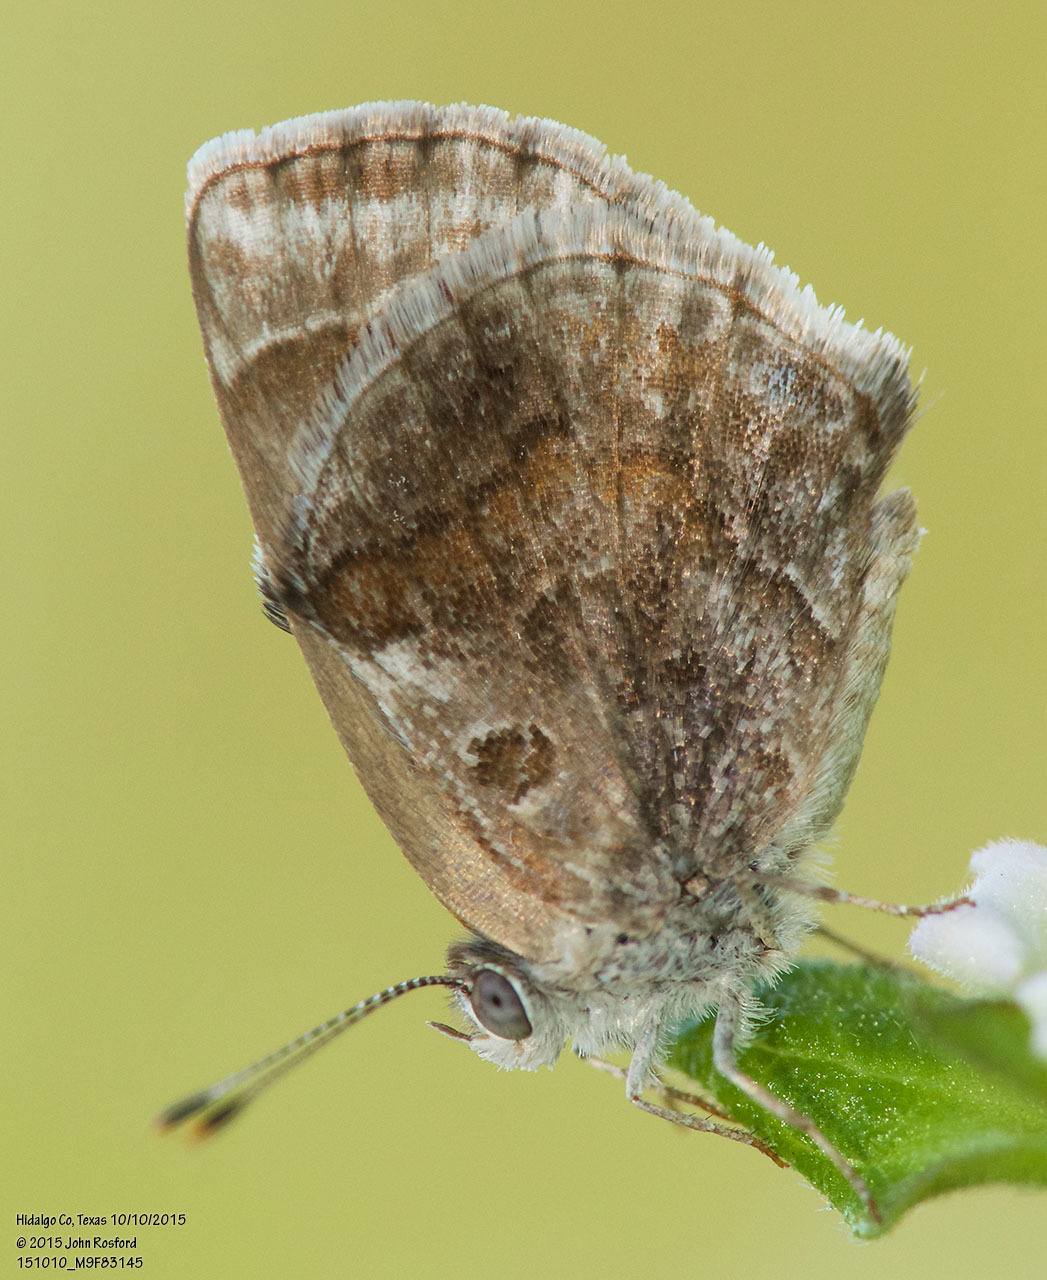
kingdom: Animalia
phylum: Arthropoda
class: Insecta
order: Lepidoptera
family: Lycaenidae
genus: Strymon
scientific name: Strymon bazochii
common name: Lantana scrub-hairstreak
